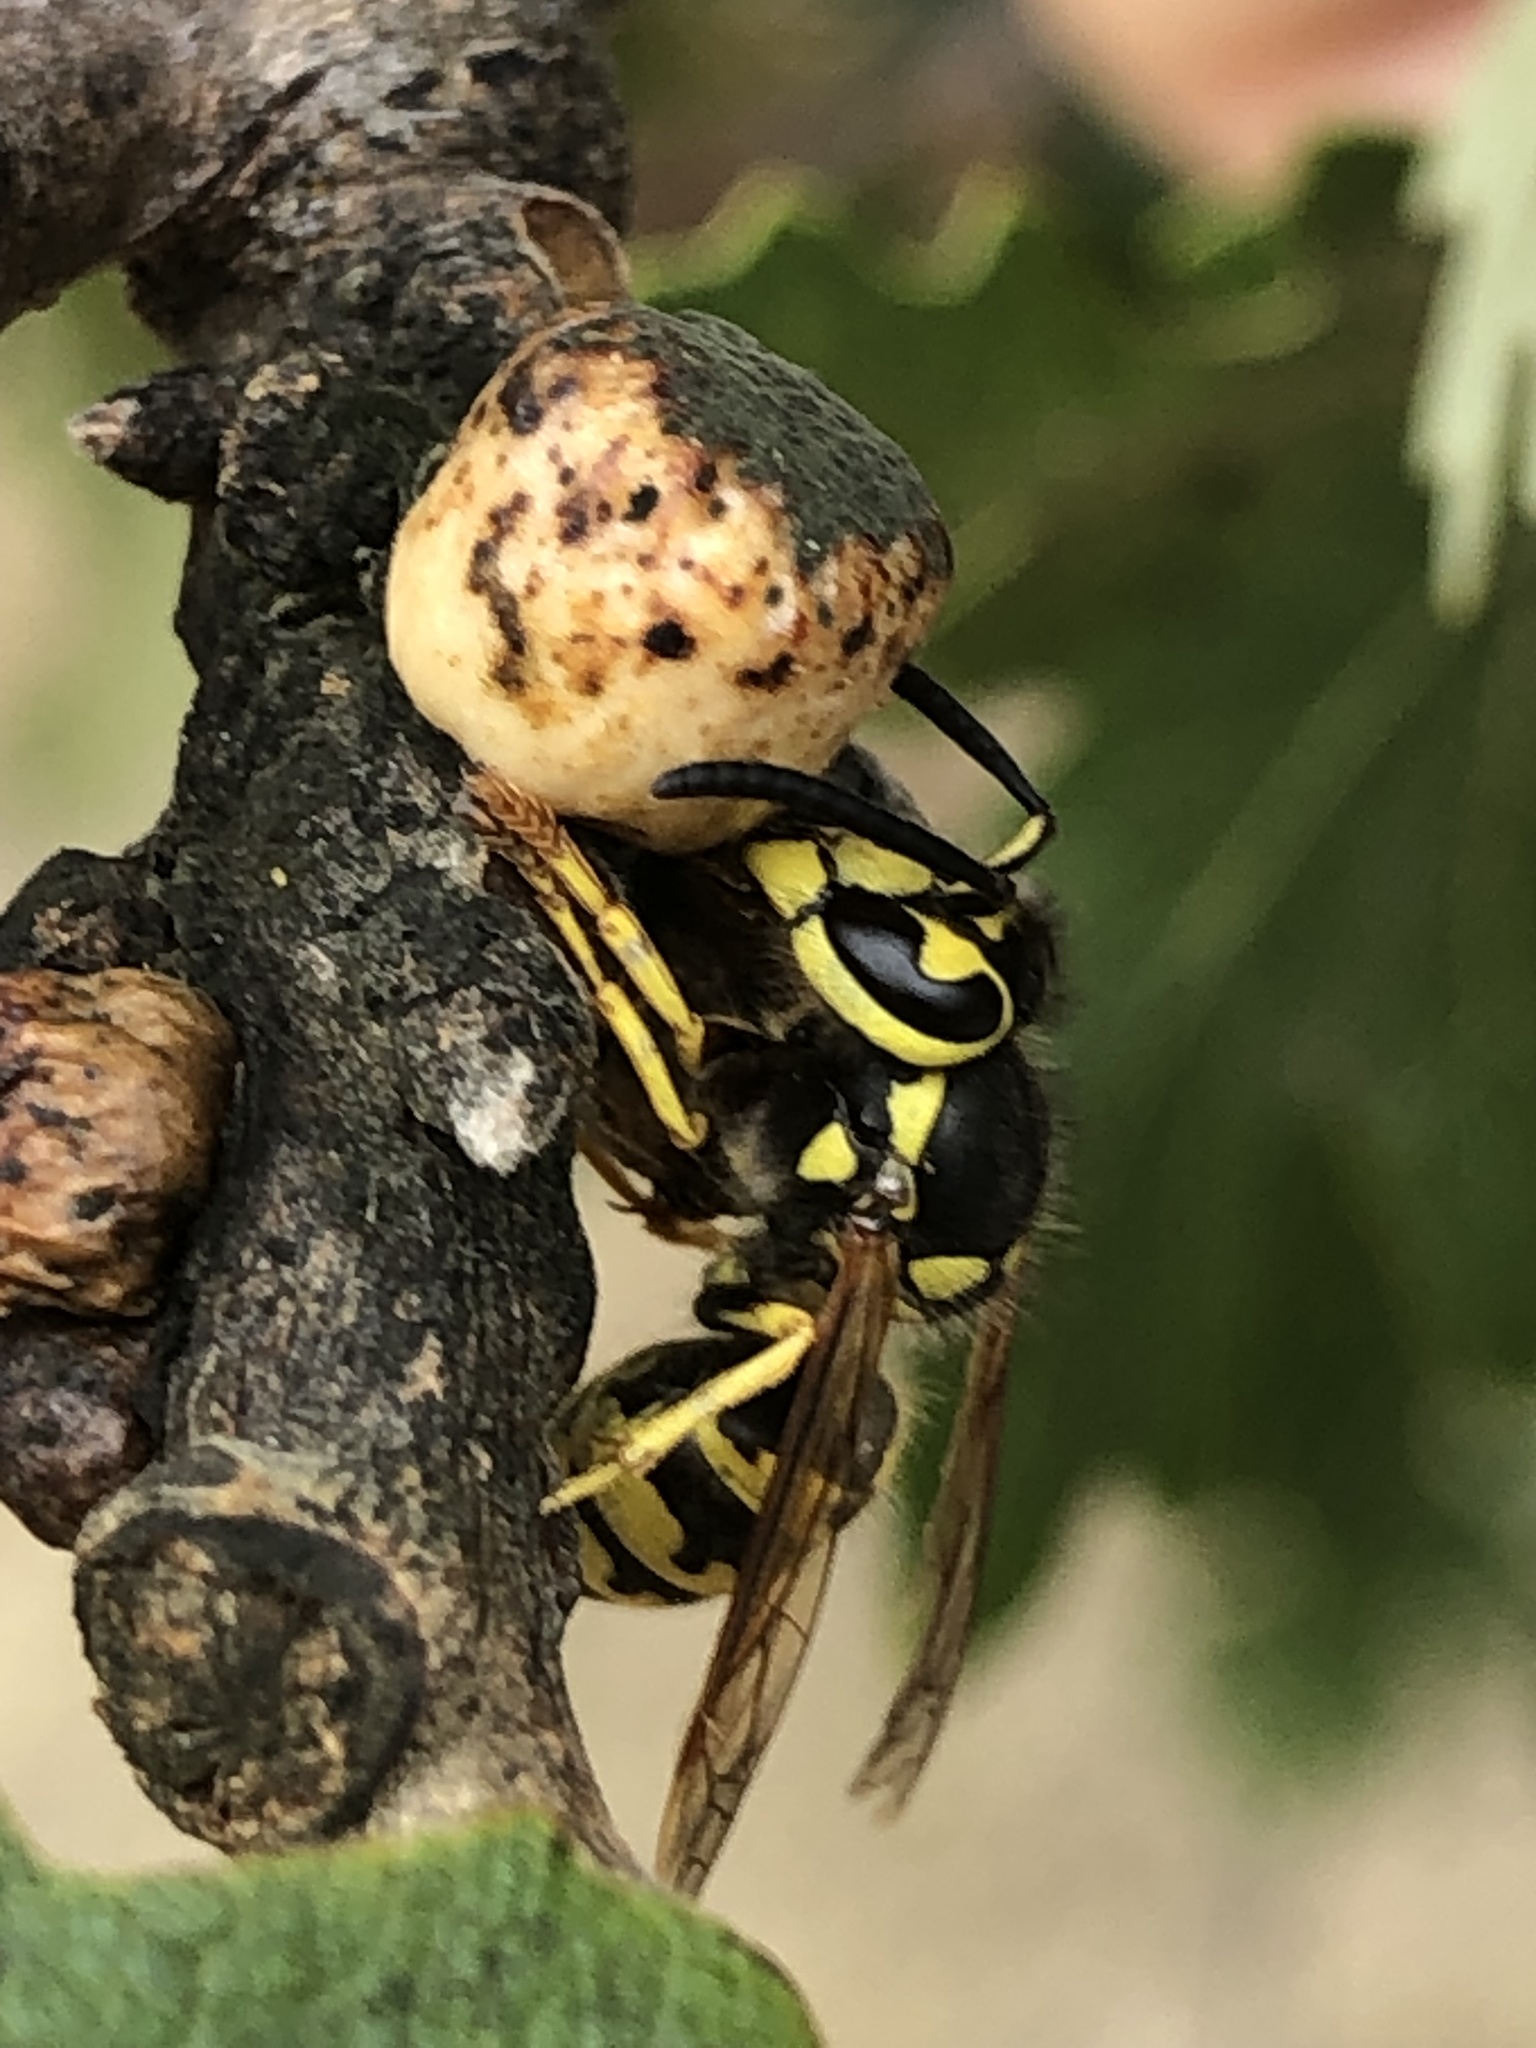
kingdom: Animalia
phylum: Arthropoda
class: Insecta
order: Hymenoptera
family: Cynipidae
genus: Disholcaspis
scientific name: Disholcaspis
